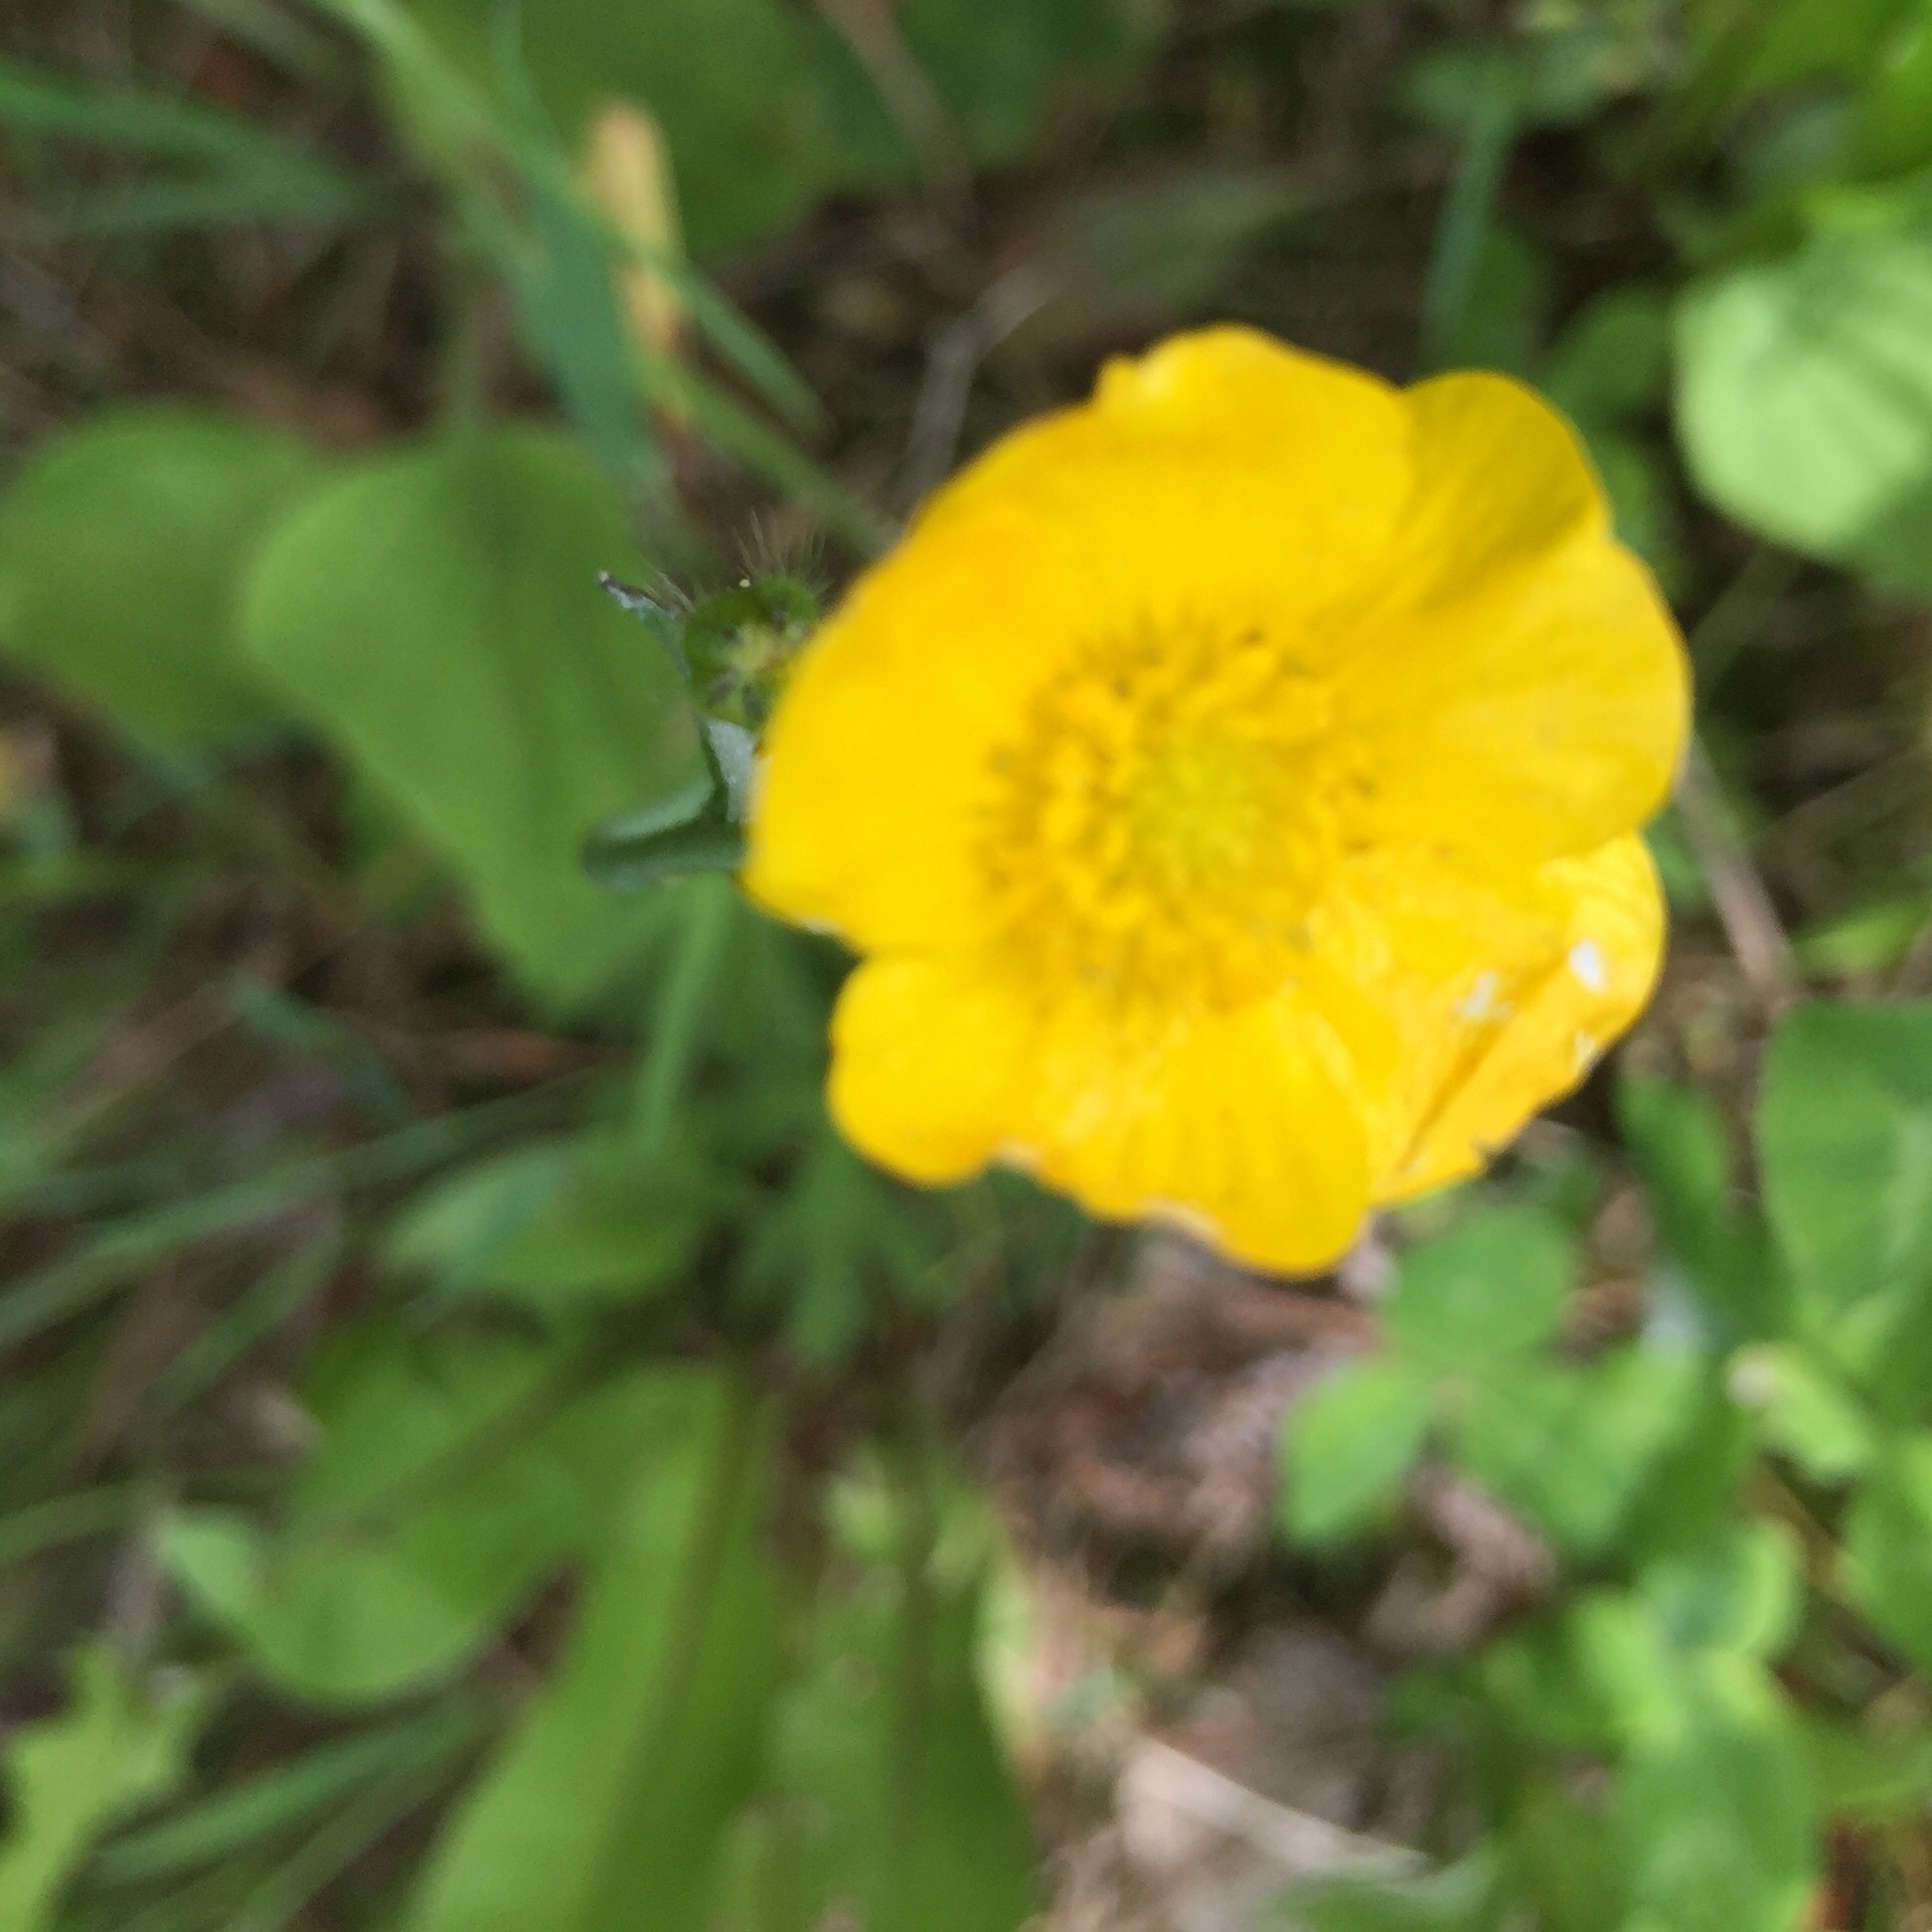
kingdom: Plantae
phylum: Tracheophyta
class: Magnoliopsida
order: Ranunculales
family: Ranunculaceae
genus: Ranunculus
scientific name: Ranunculus acris
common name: Meadow buttercup
